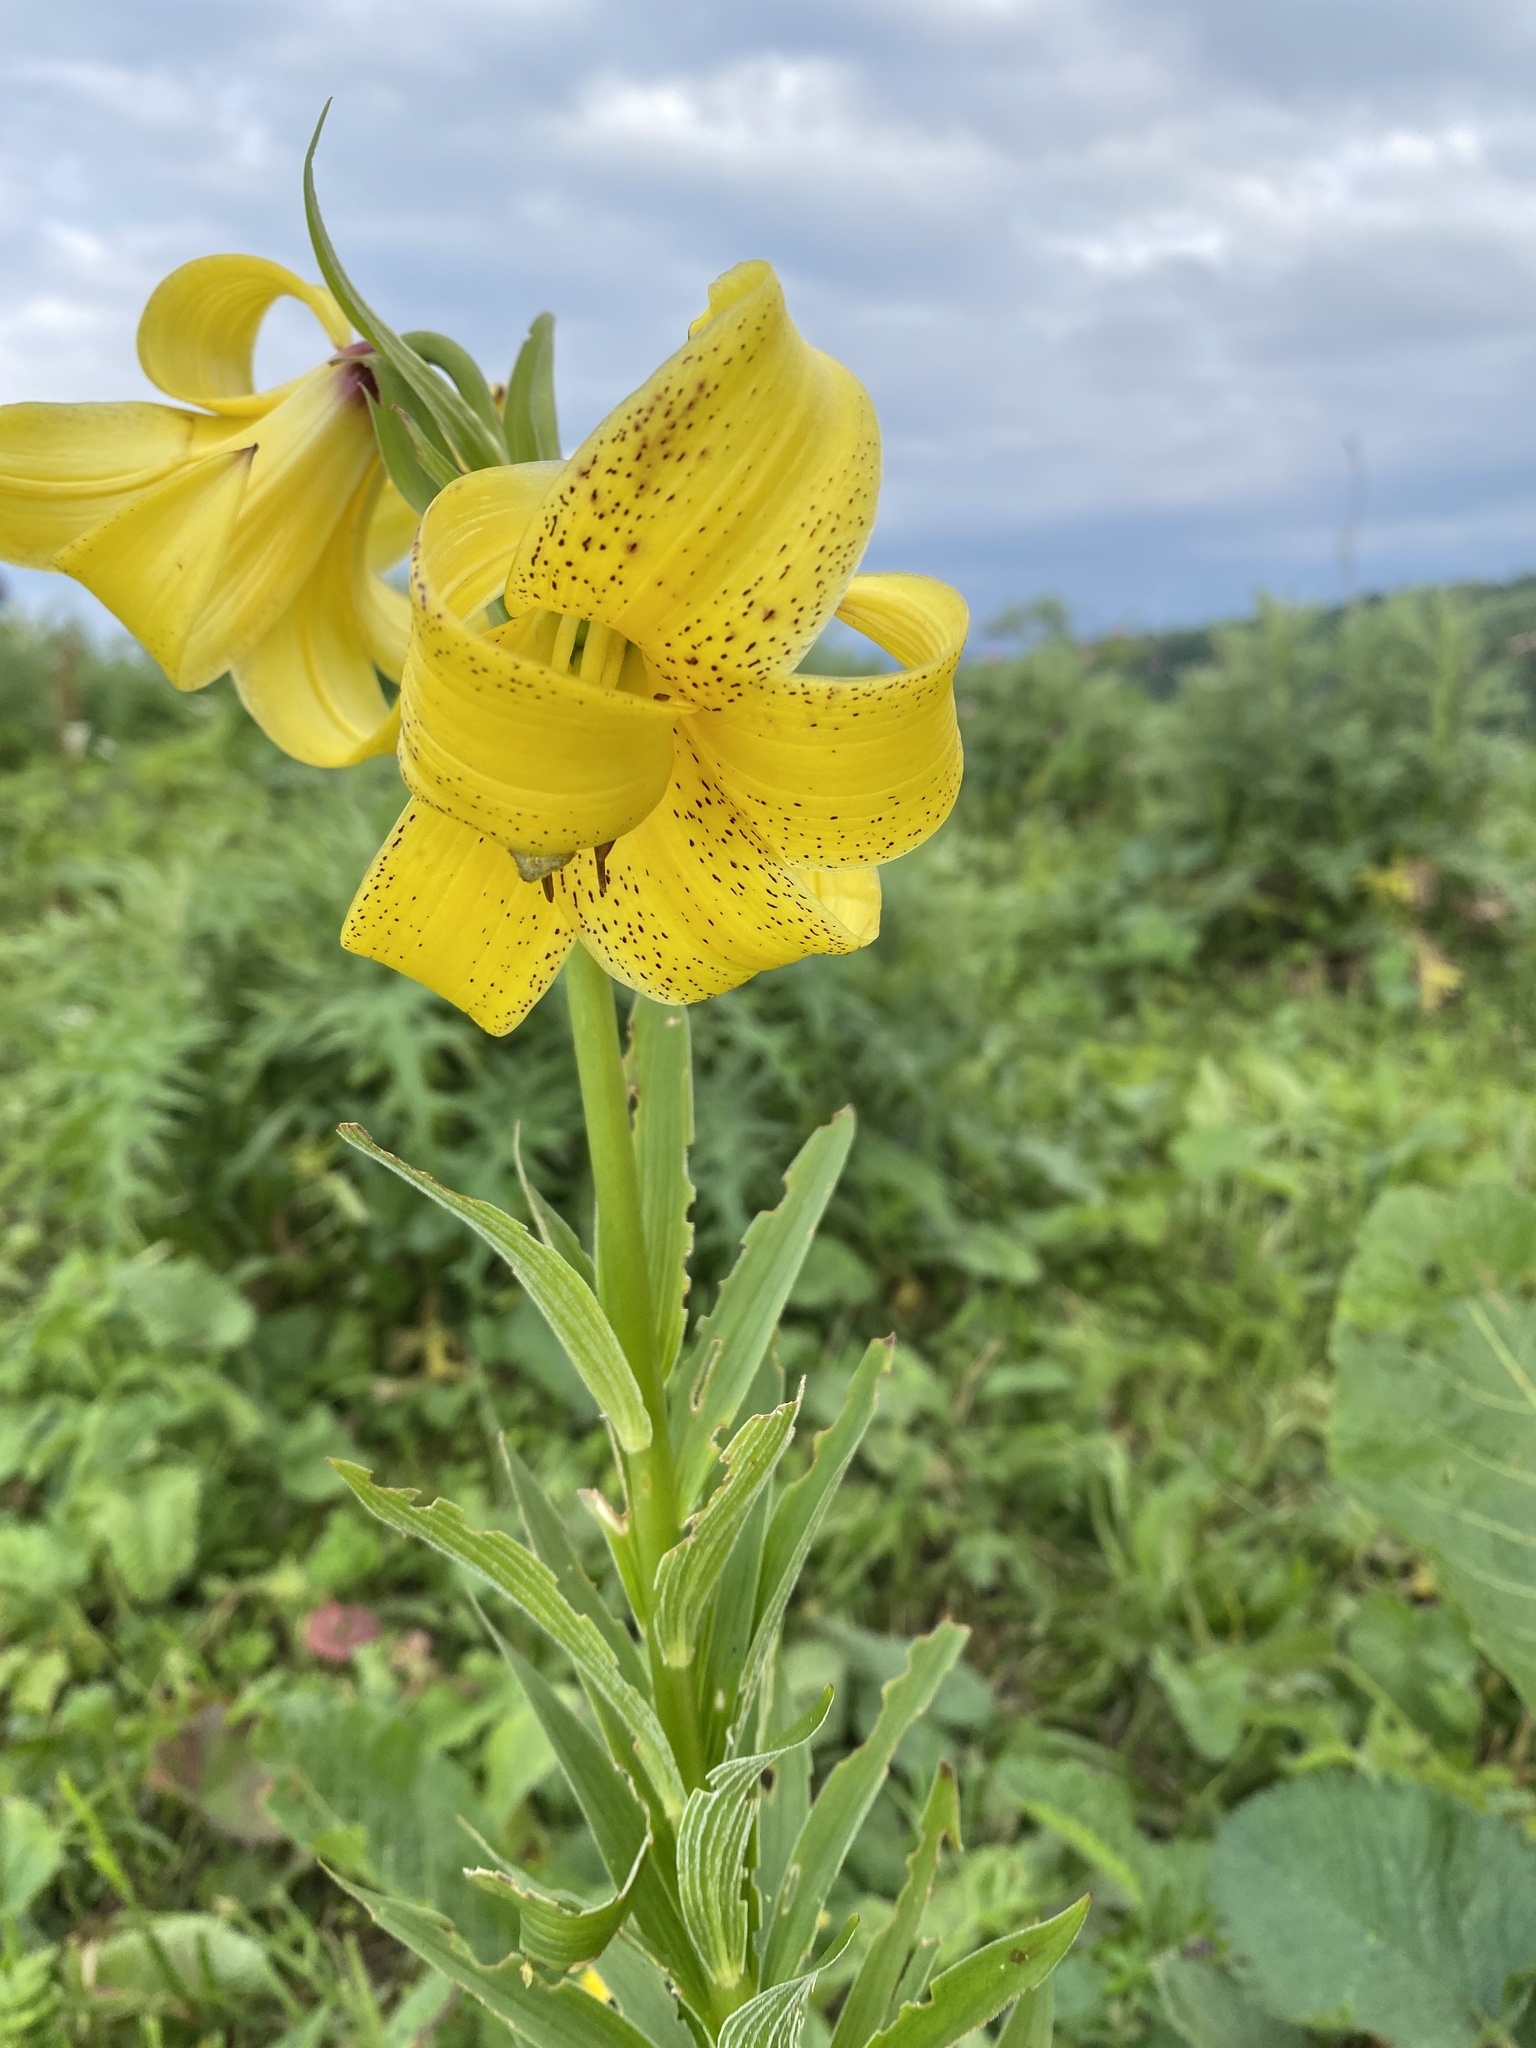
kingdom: Plantae
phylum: Tracheophyta
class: Liliopsida
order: Liliales
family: Liliaceae
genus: Lilium
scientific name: Lilium monadelphum
